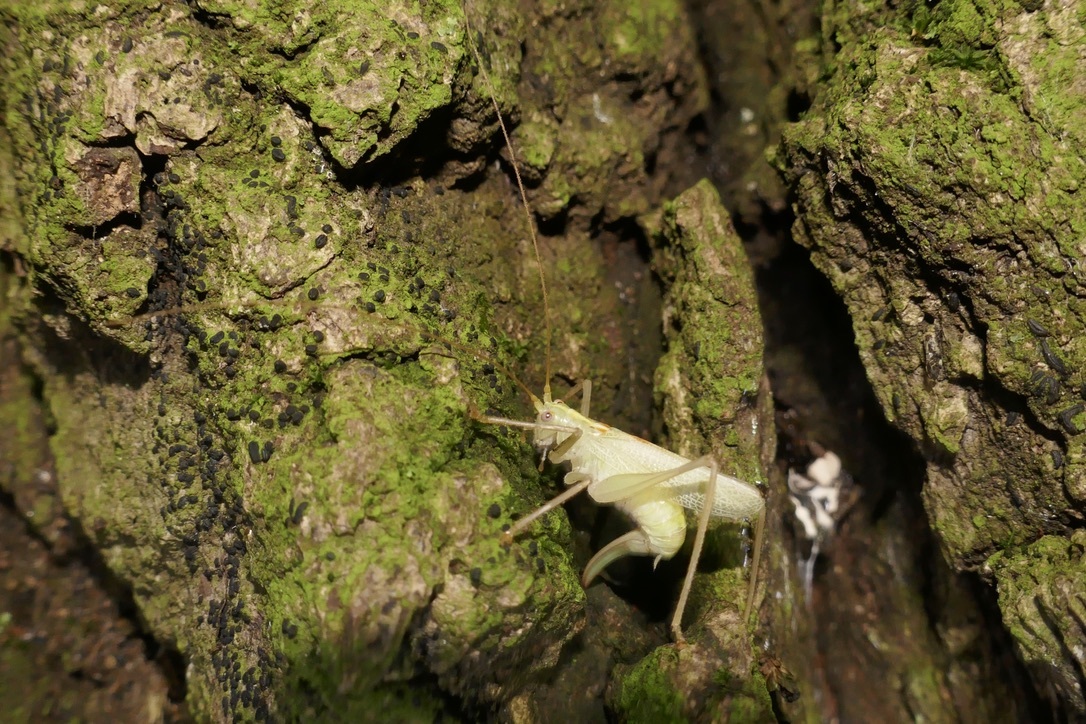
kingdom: Animalia
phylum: Arthropoda
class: Insecta
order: Orthoptera
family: Tettigoniidae
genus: Meconema
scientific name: Meconema thalassinum
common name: Oak bush-cricket
